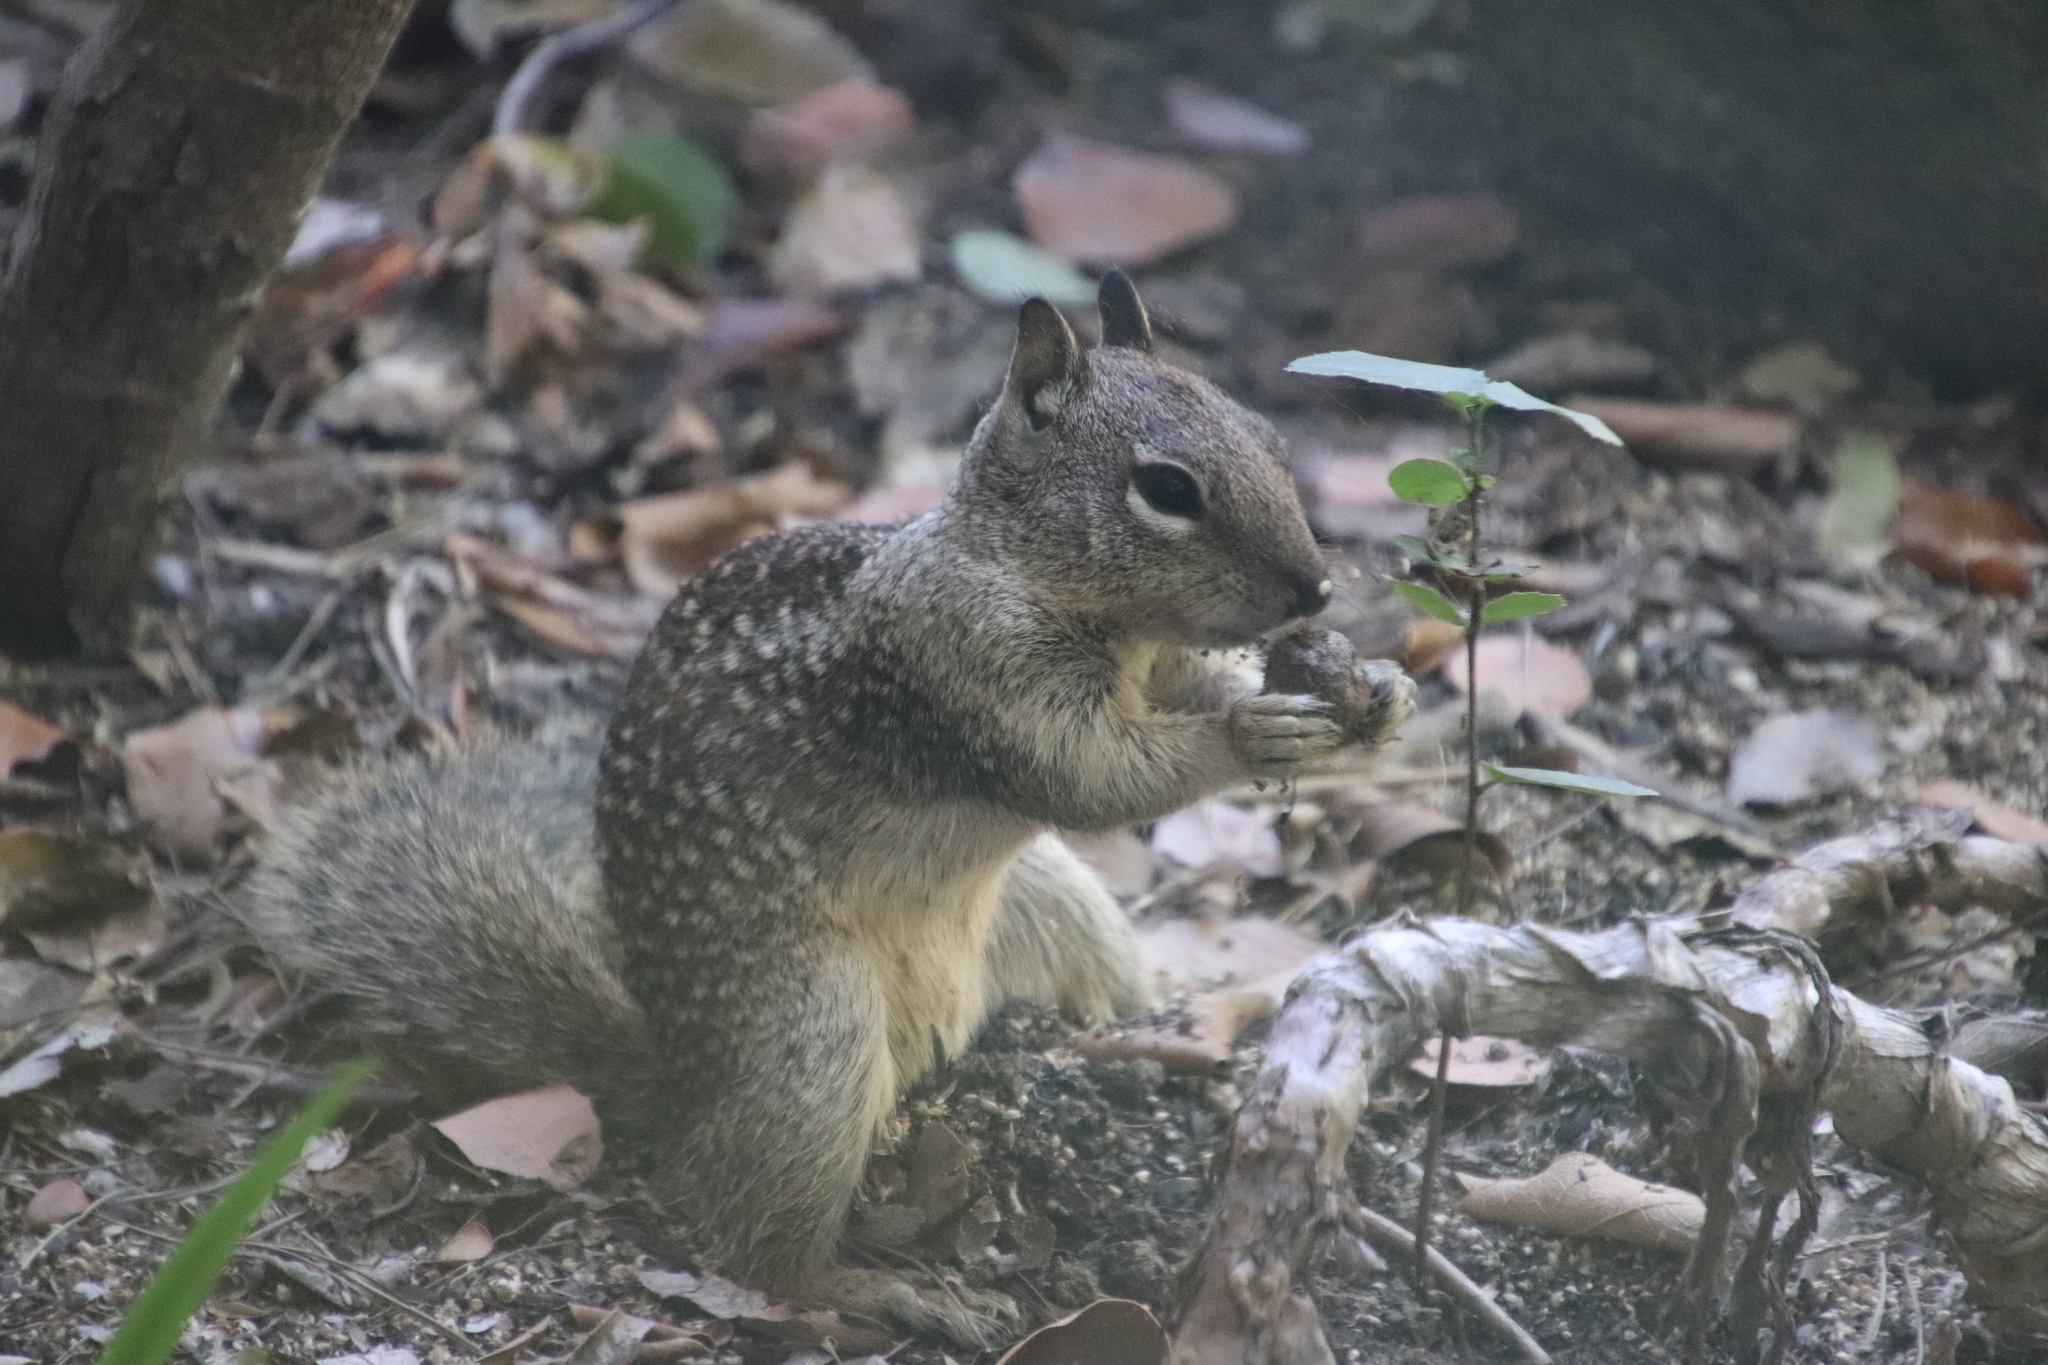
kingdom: Animalia
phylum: Chordata
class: Mammalia
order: Rodentia
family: Sciuridae
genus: Otospermophilus
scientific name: Otospermophilus beecheyi
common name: California ground squirrel
